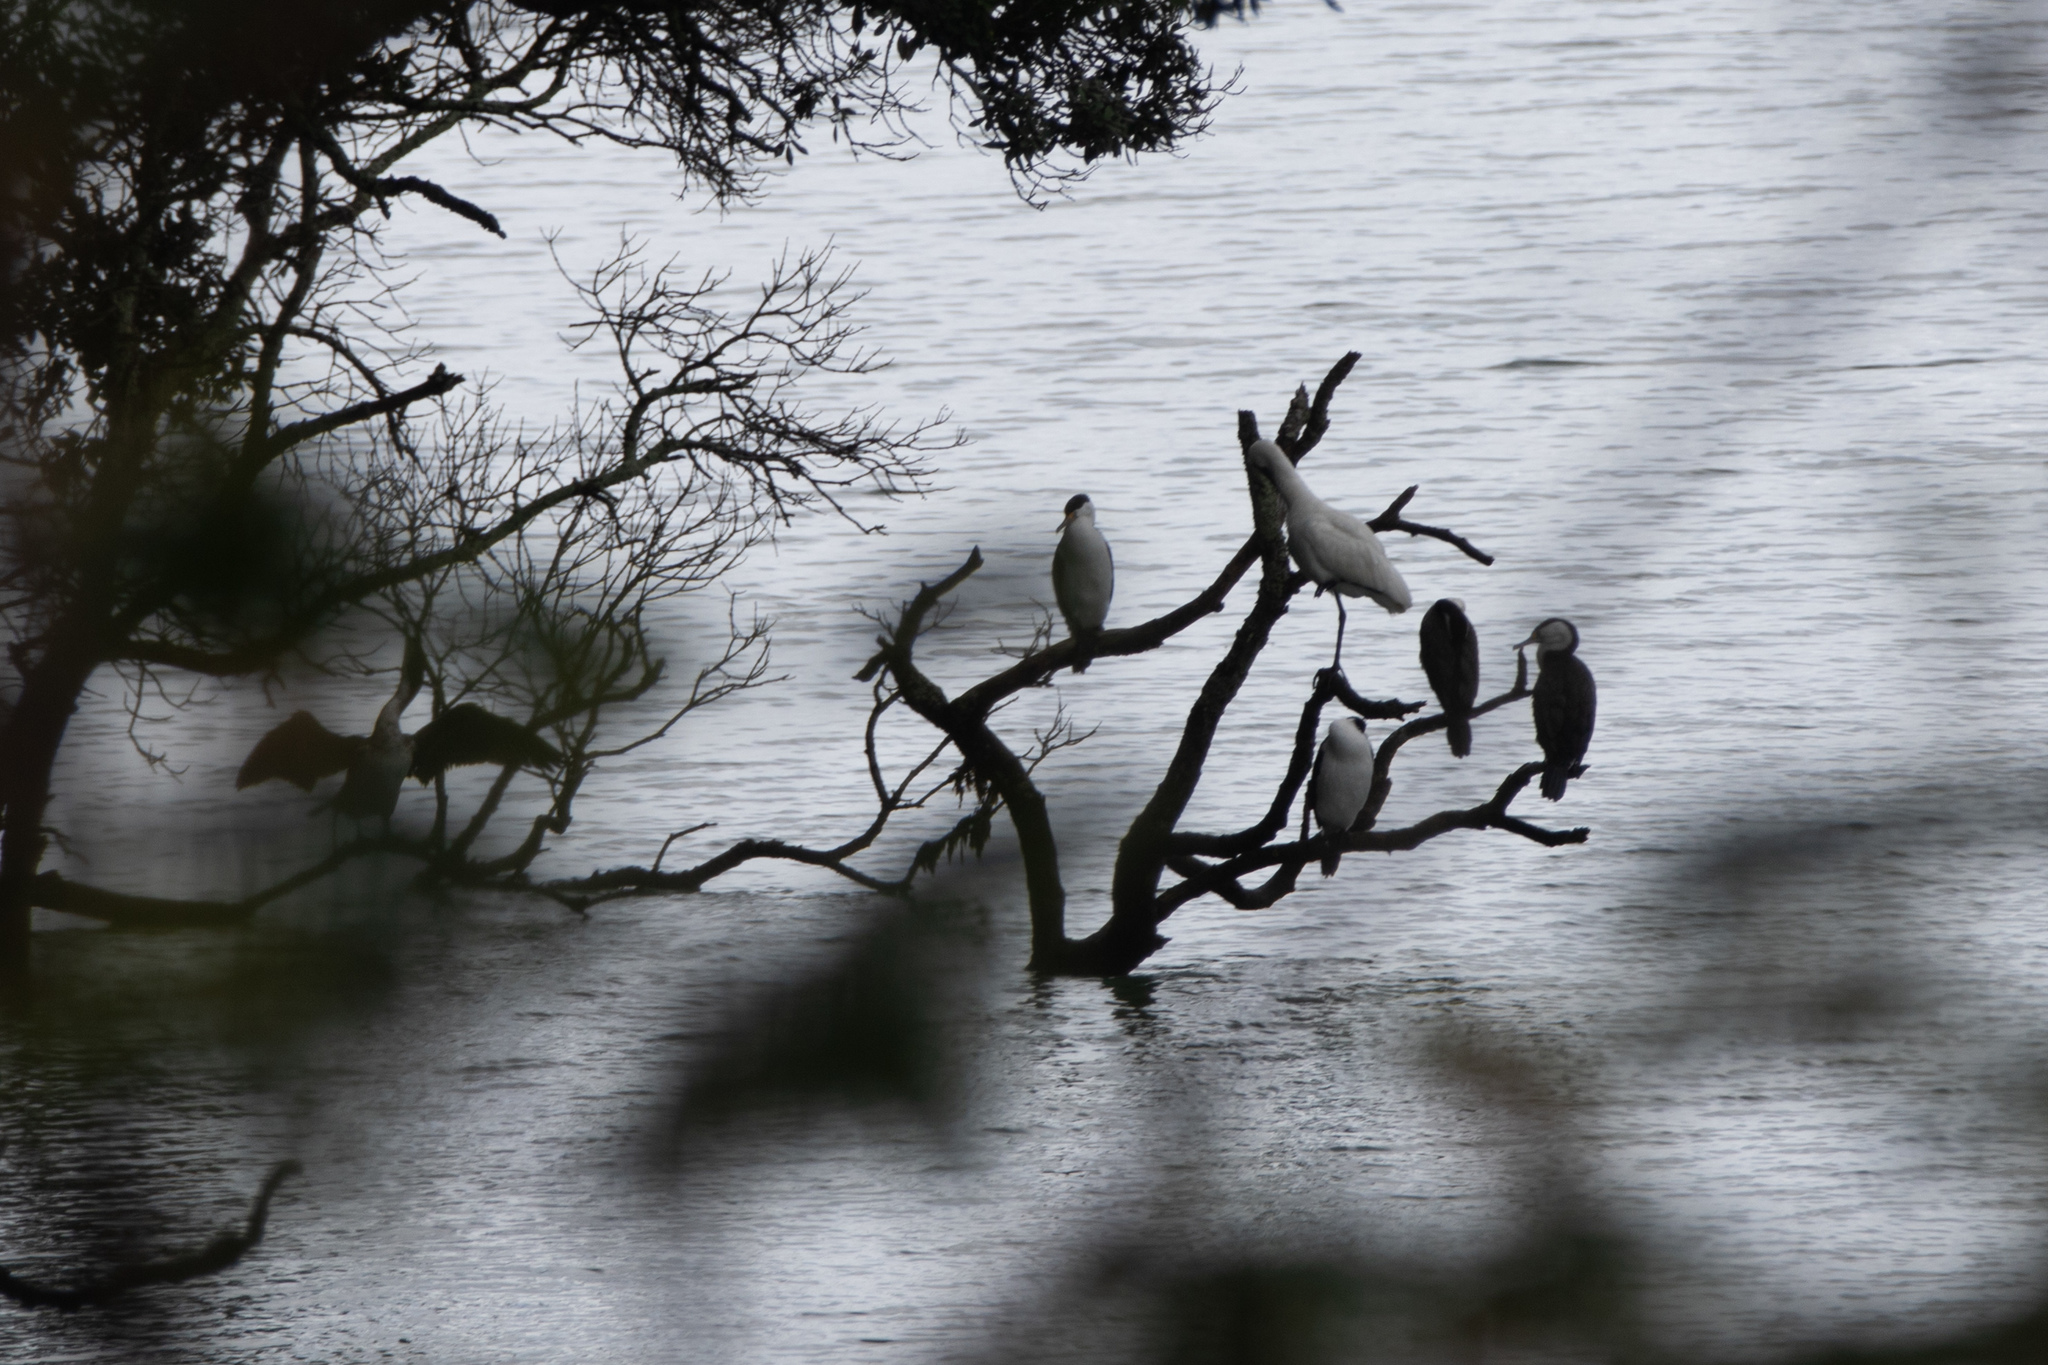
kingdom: Animalia
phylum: Chordata
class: Aves
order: Pelecaniformes
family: Threskiornithidae
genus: Platalea
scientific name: Platalea regia
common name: Royal spoonbill
